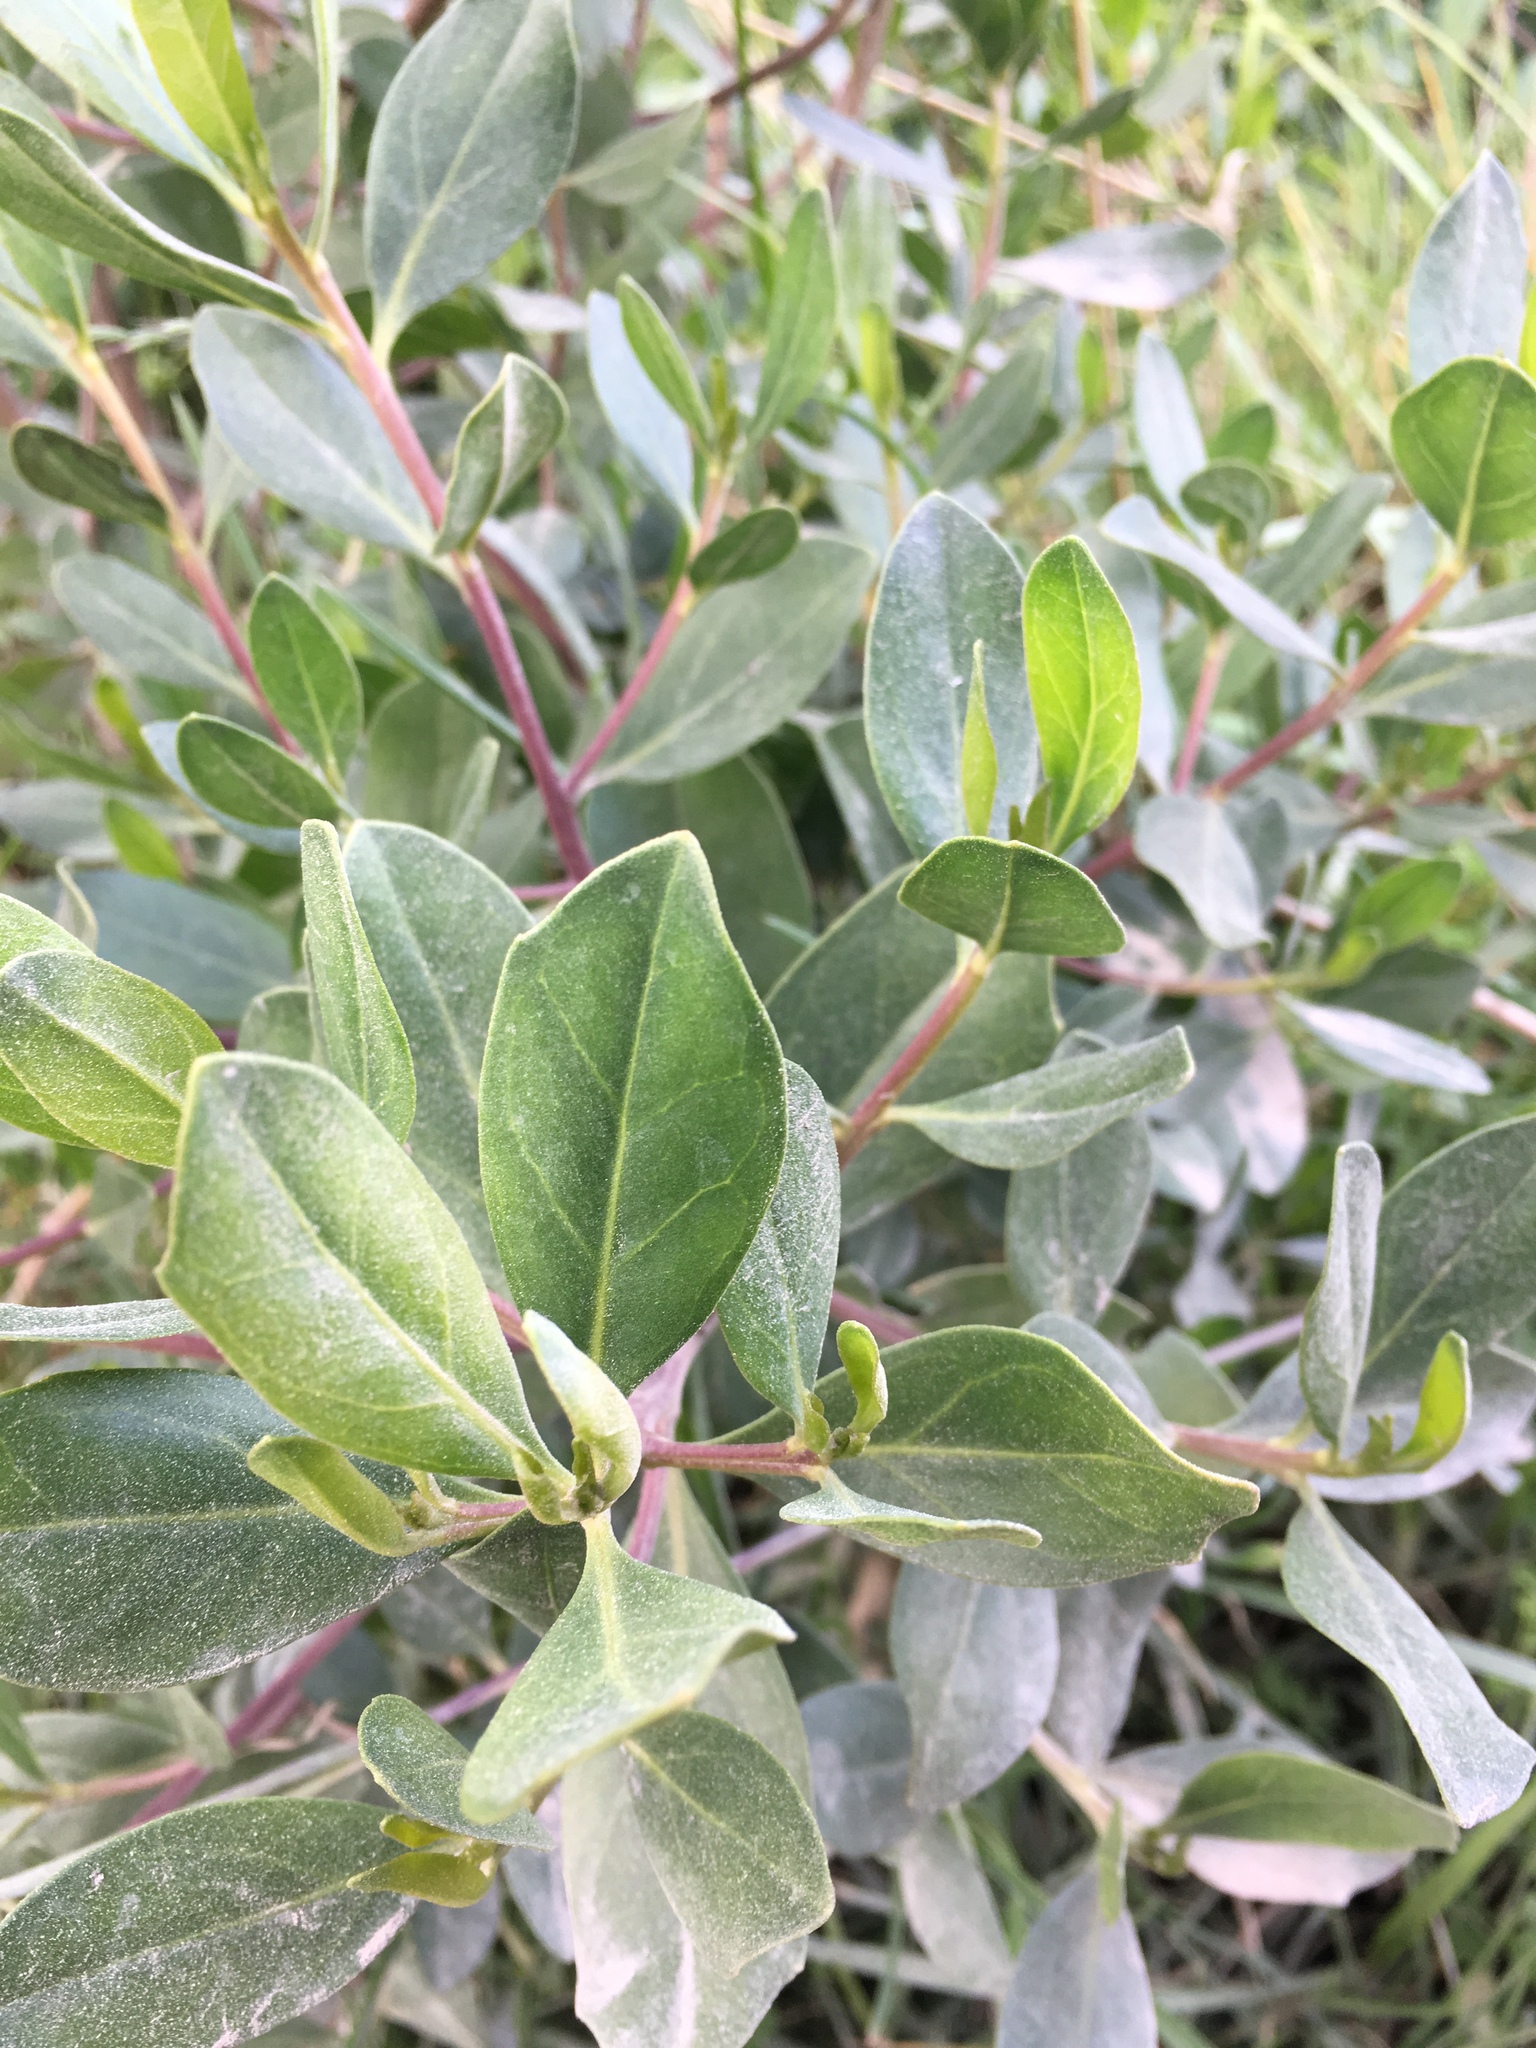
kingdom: Plantae
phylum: Tracheophyta
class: Magnoliopsida
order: Asterales
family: Asteraceae
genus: Baccharis
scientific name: Baccharis macrantha
